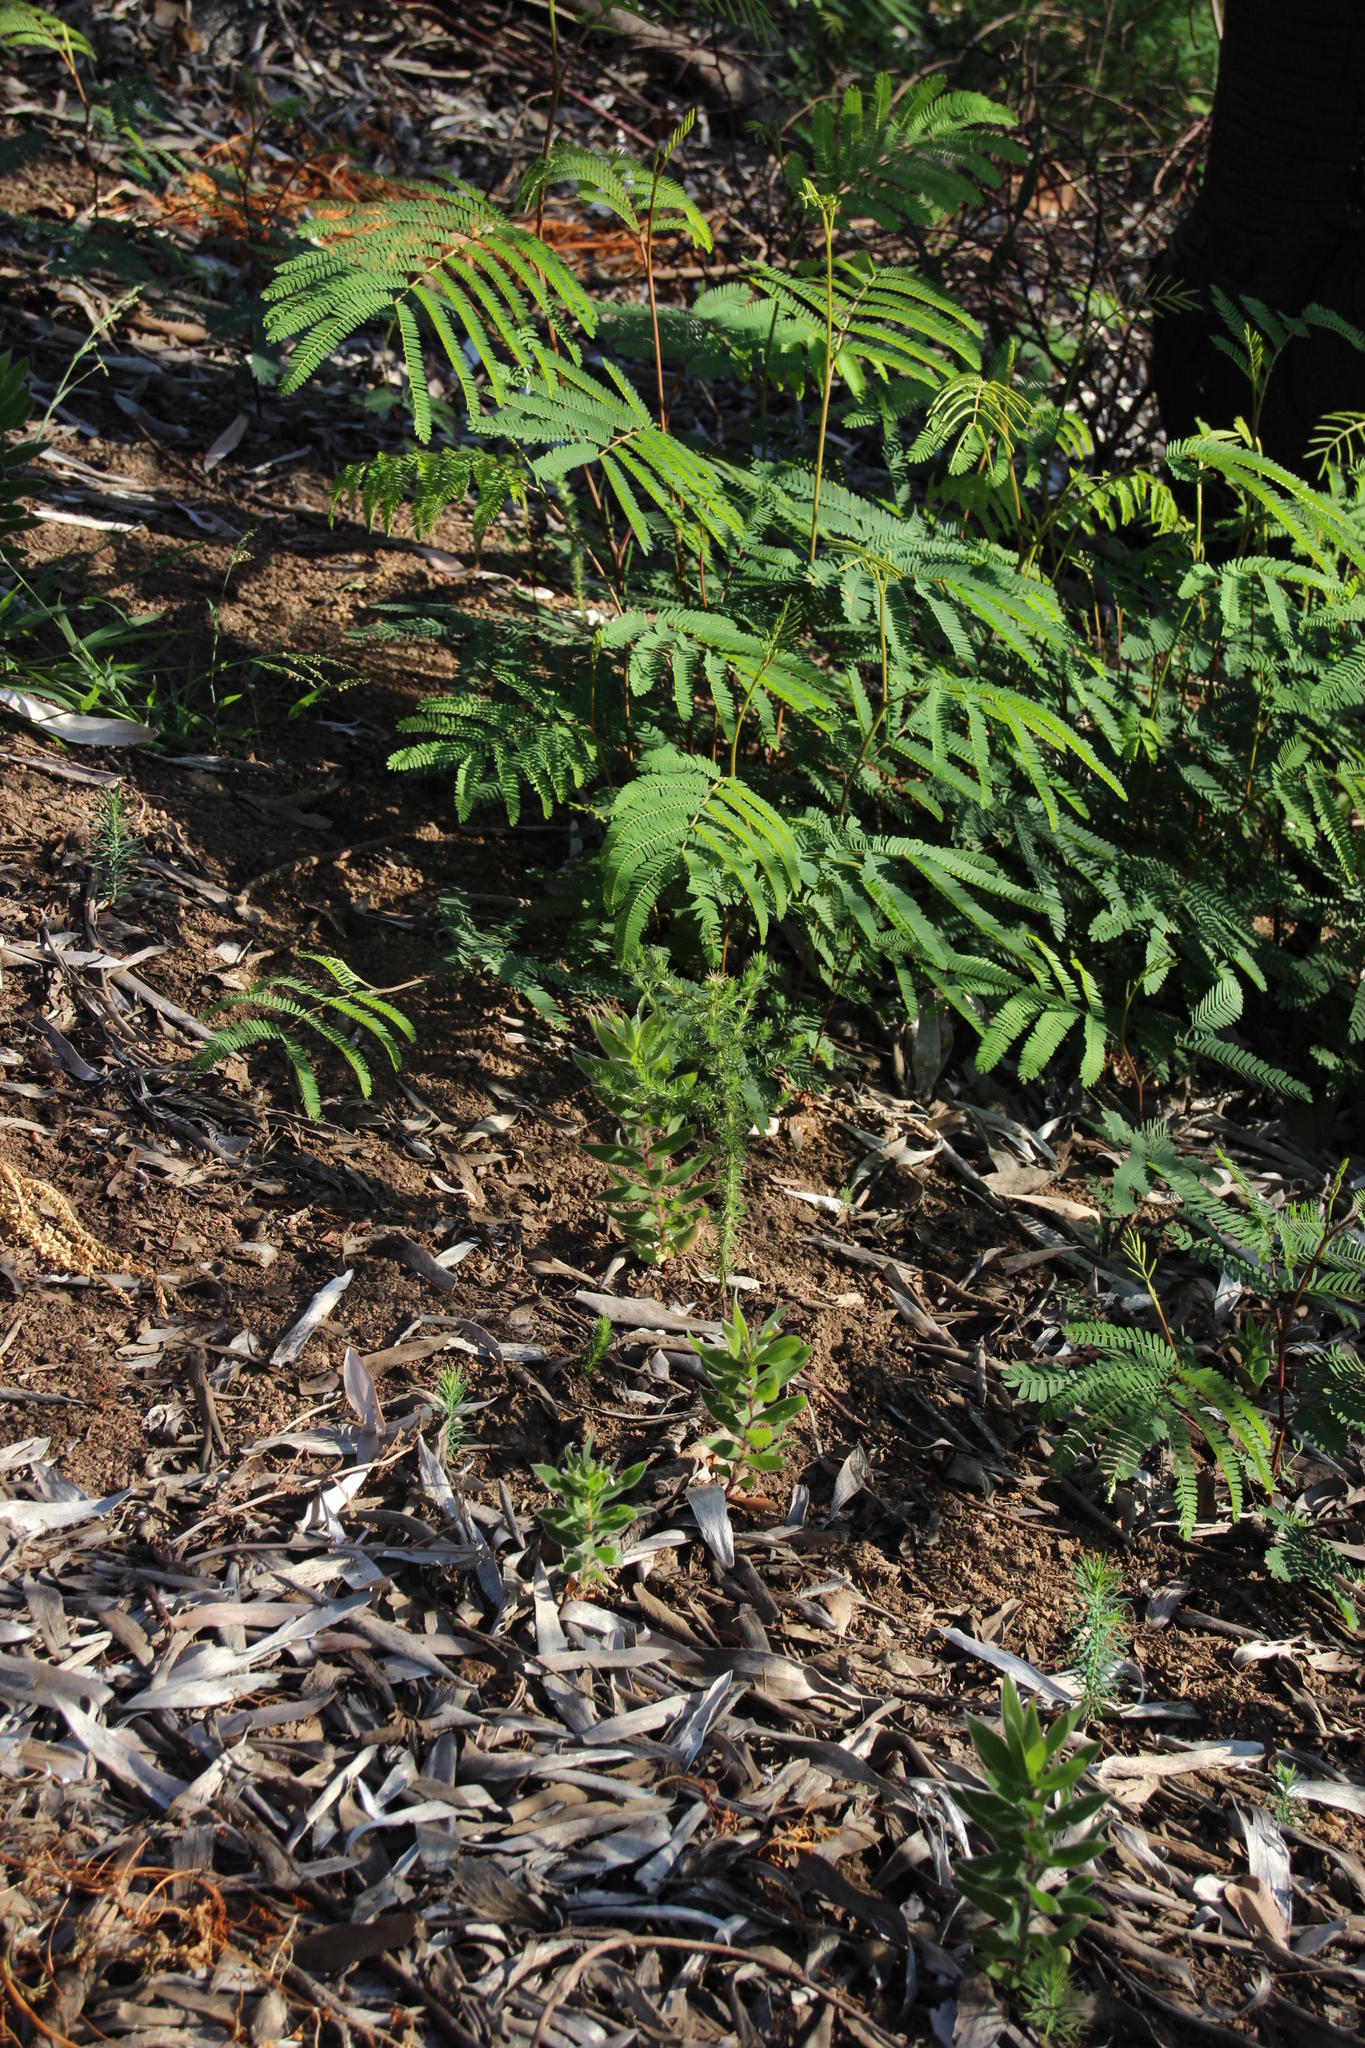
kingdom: Plantae
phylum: Tracheophyta
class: Magnoliopsida
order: Fabales
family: Fabaceae
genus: Paraserianthes
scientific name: Paraserianthes lophantha
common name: Plume albizia
